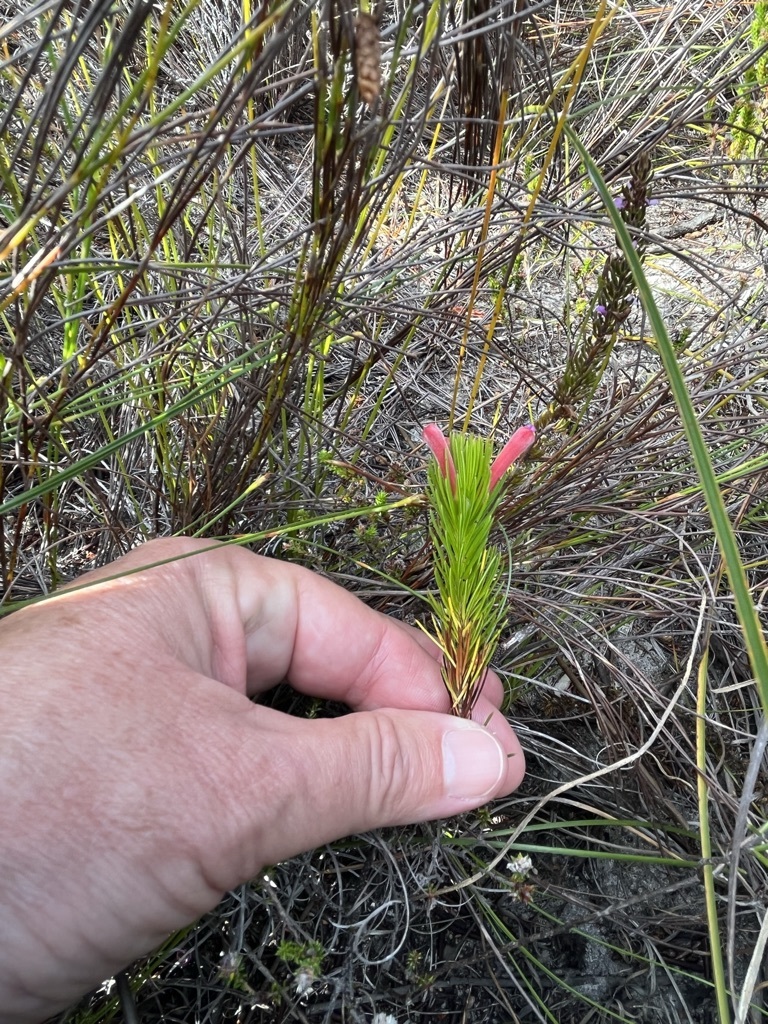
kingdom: Plantae
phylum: Tracheophyta
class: Magnoliopsida
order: Ericales
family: Ericaceae
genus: Erica
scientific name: Erica vestita
